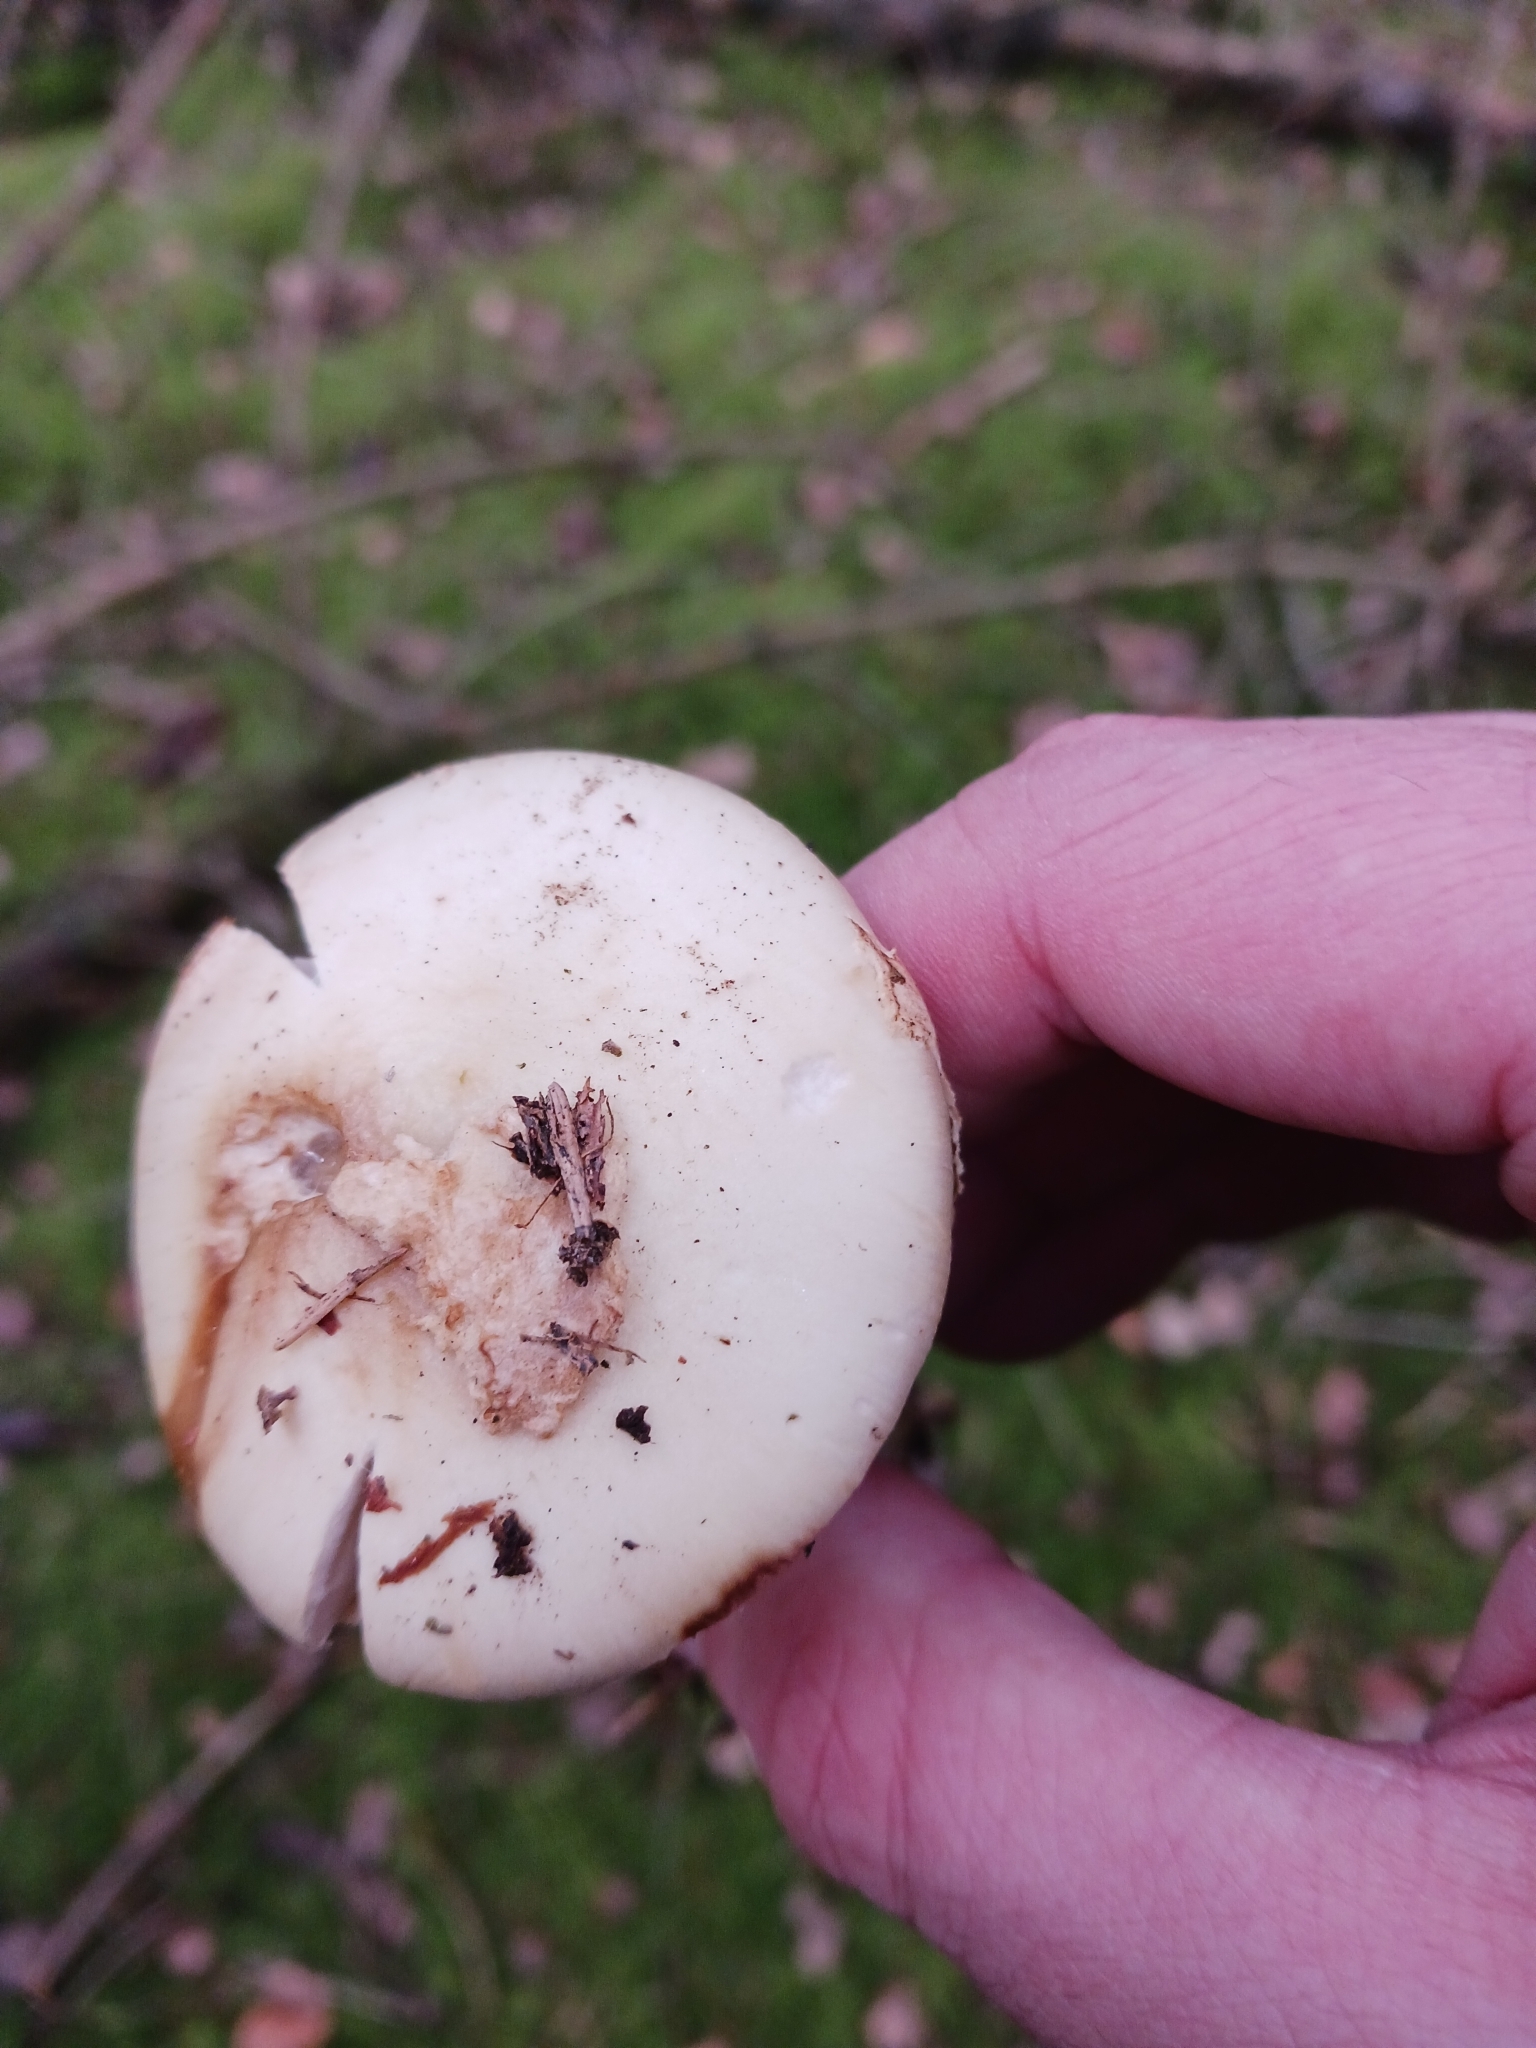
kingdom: Fungi
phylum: Basidiomycota
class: Agaricomycetes
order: Agaricales
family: Amanitaceae
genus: Amanita
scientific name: Amanita citrina
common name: False death-cap
